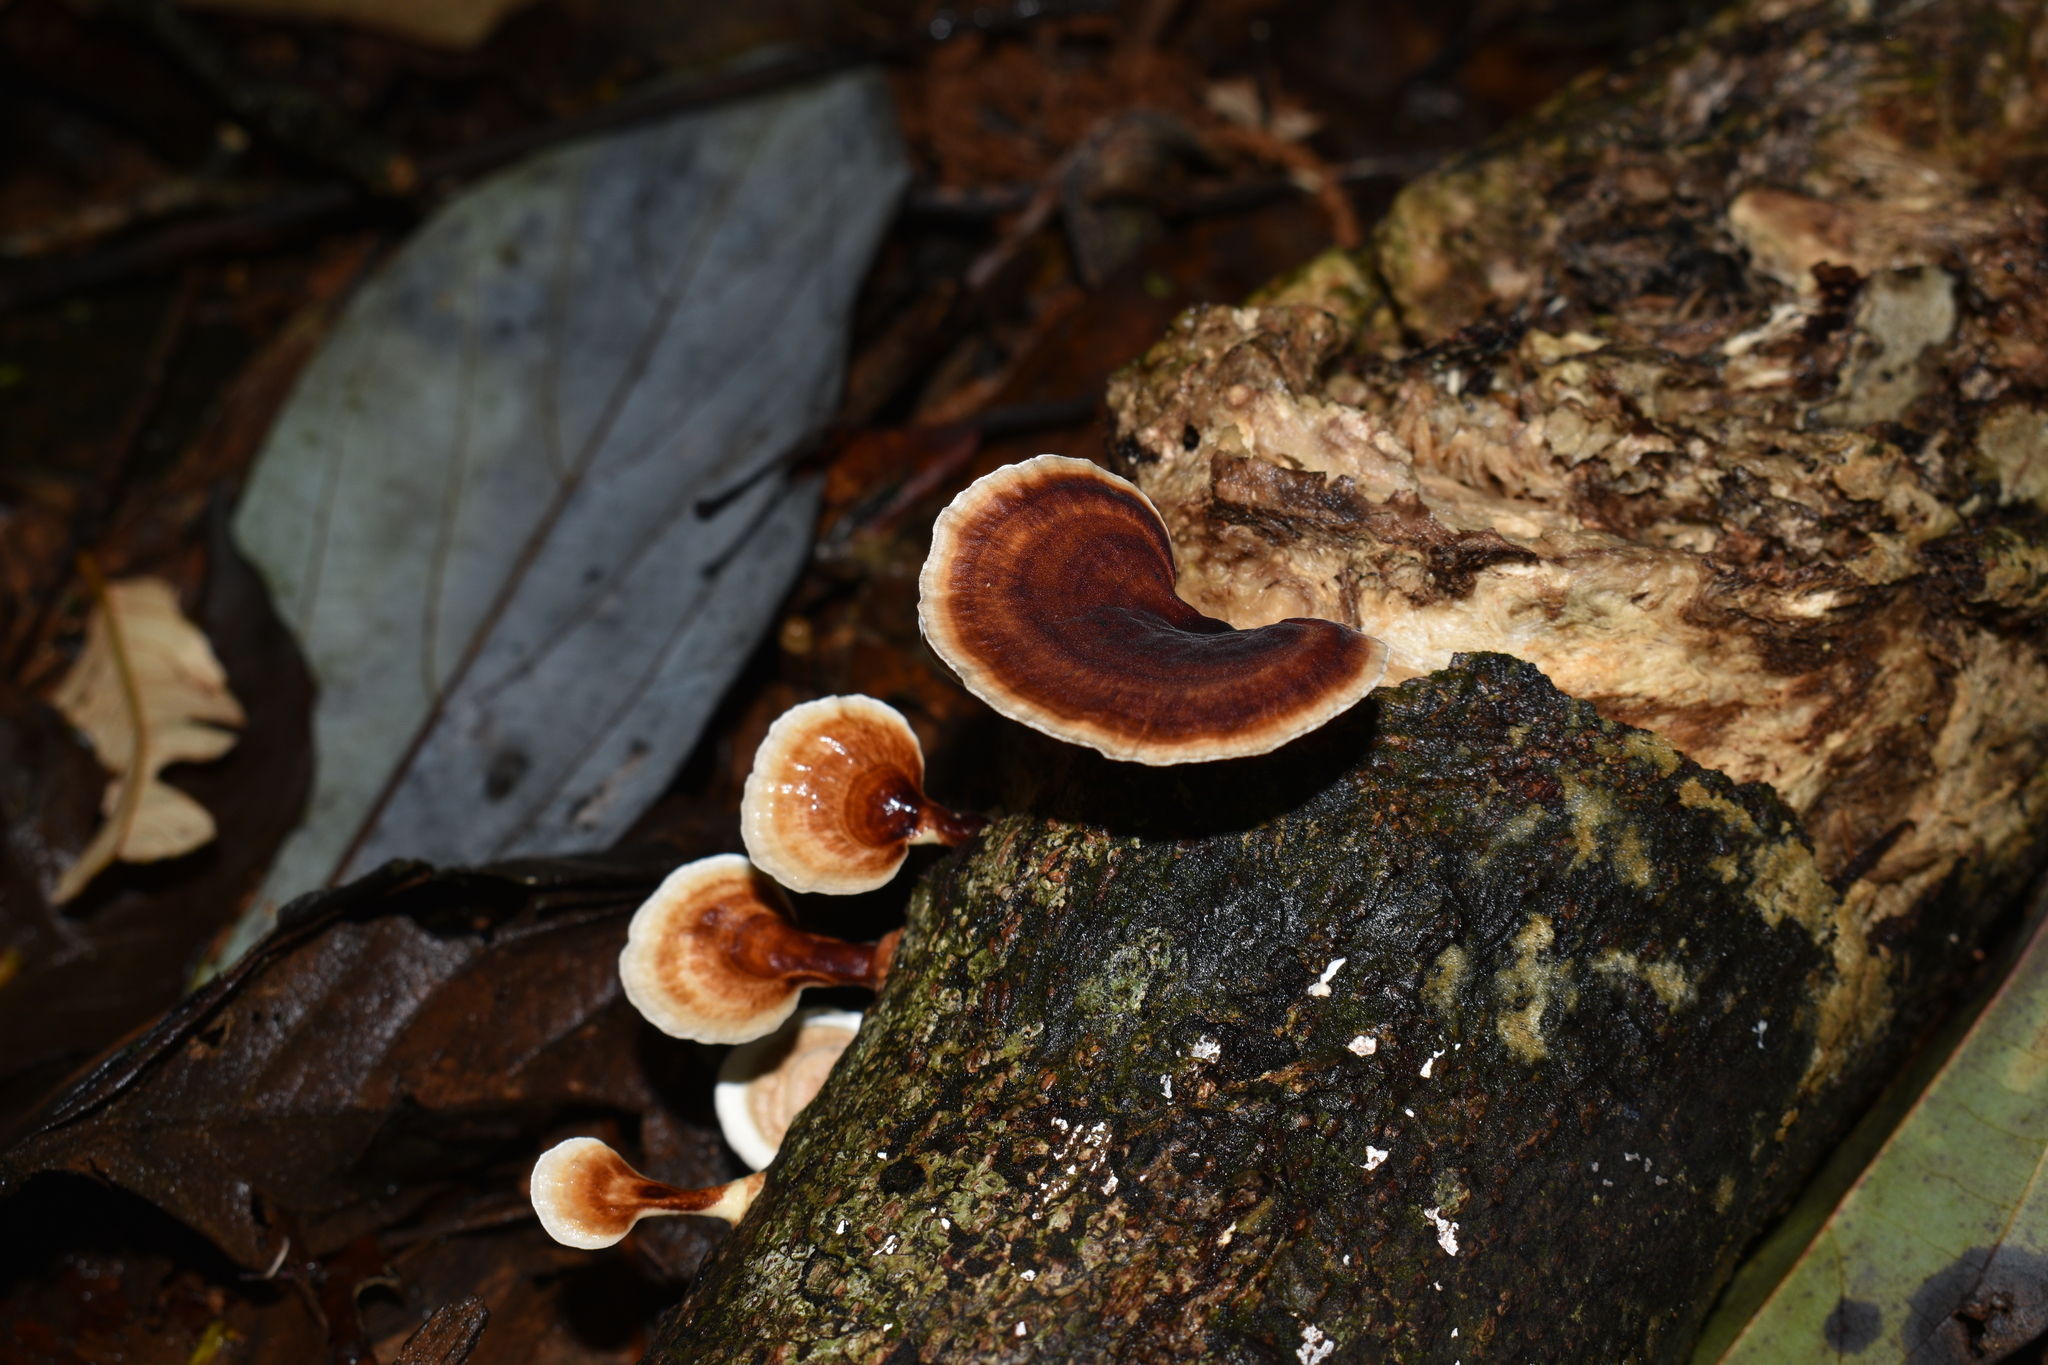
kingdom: Fungi
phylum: Basidiomycota
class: Agaricomycetes
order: Polyporales
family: Polyporaceae
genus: Microporus
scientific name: Microporus affinis
